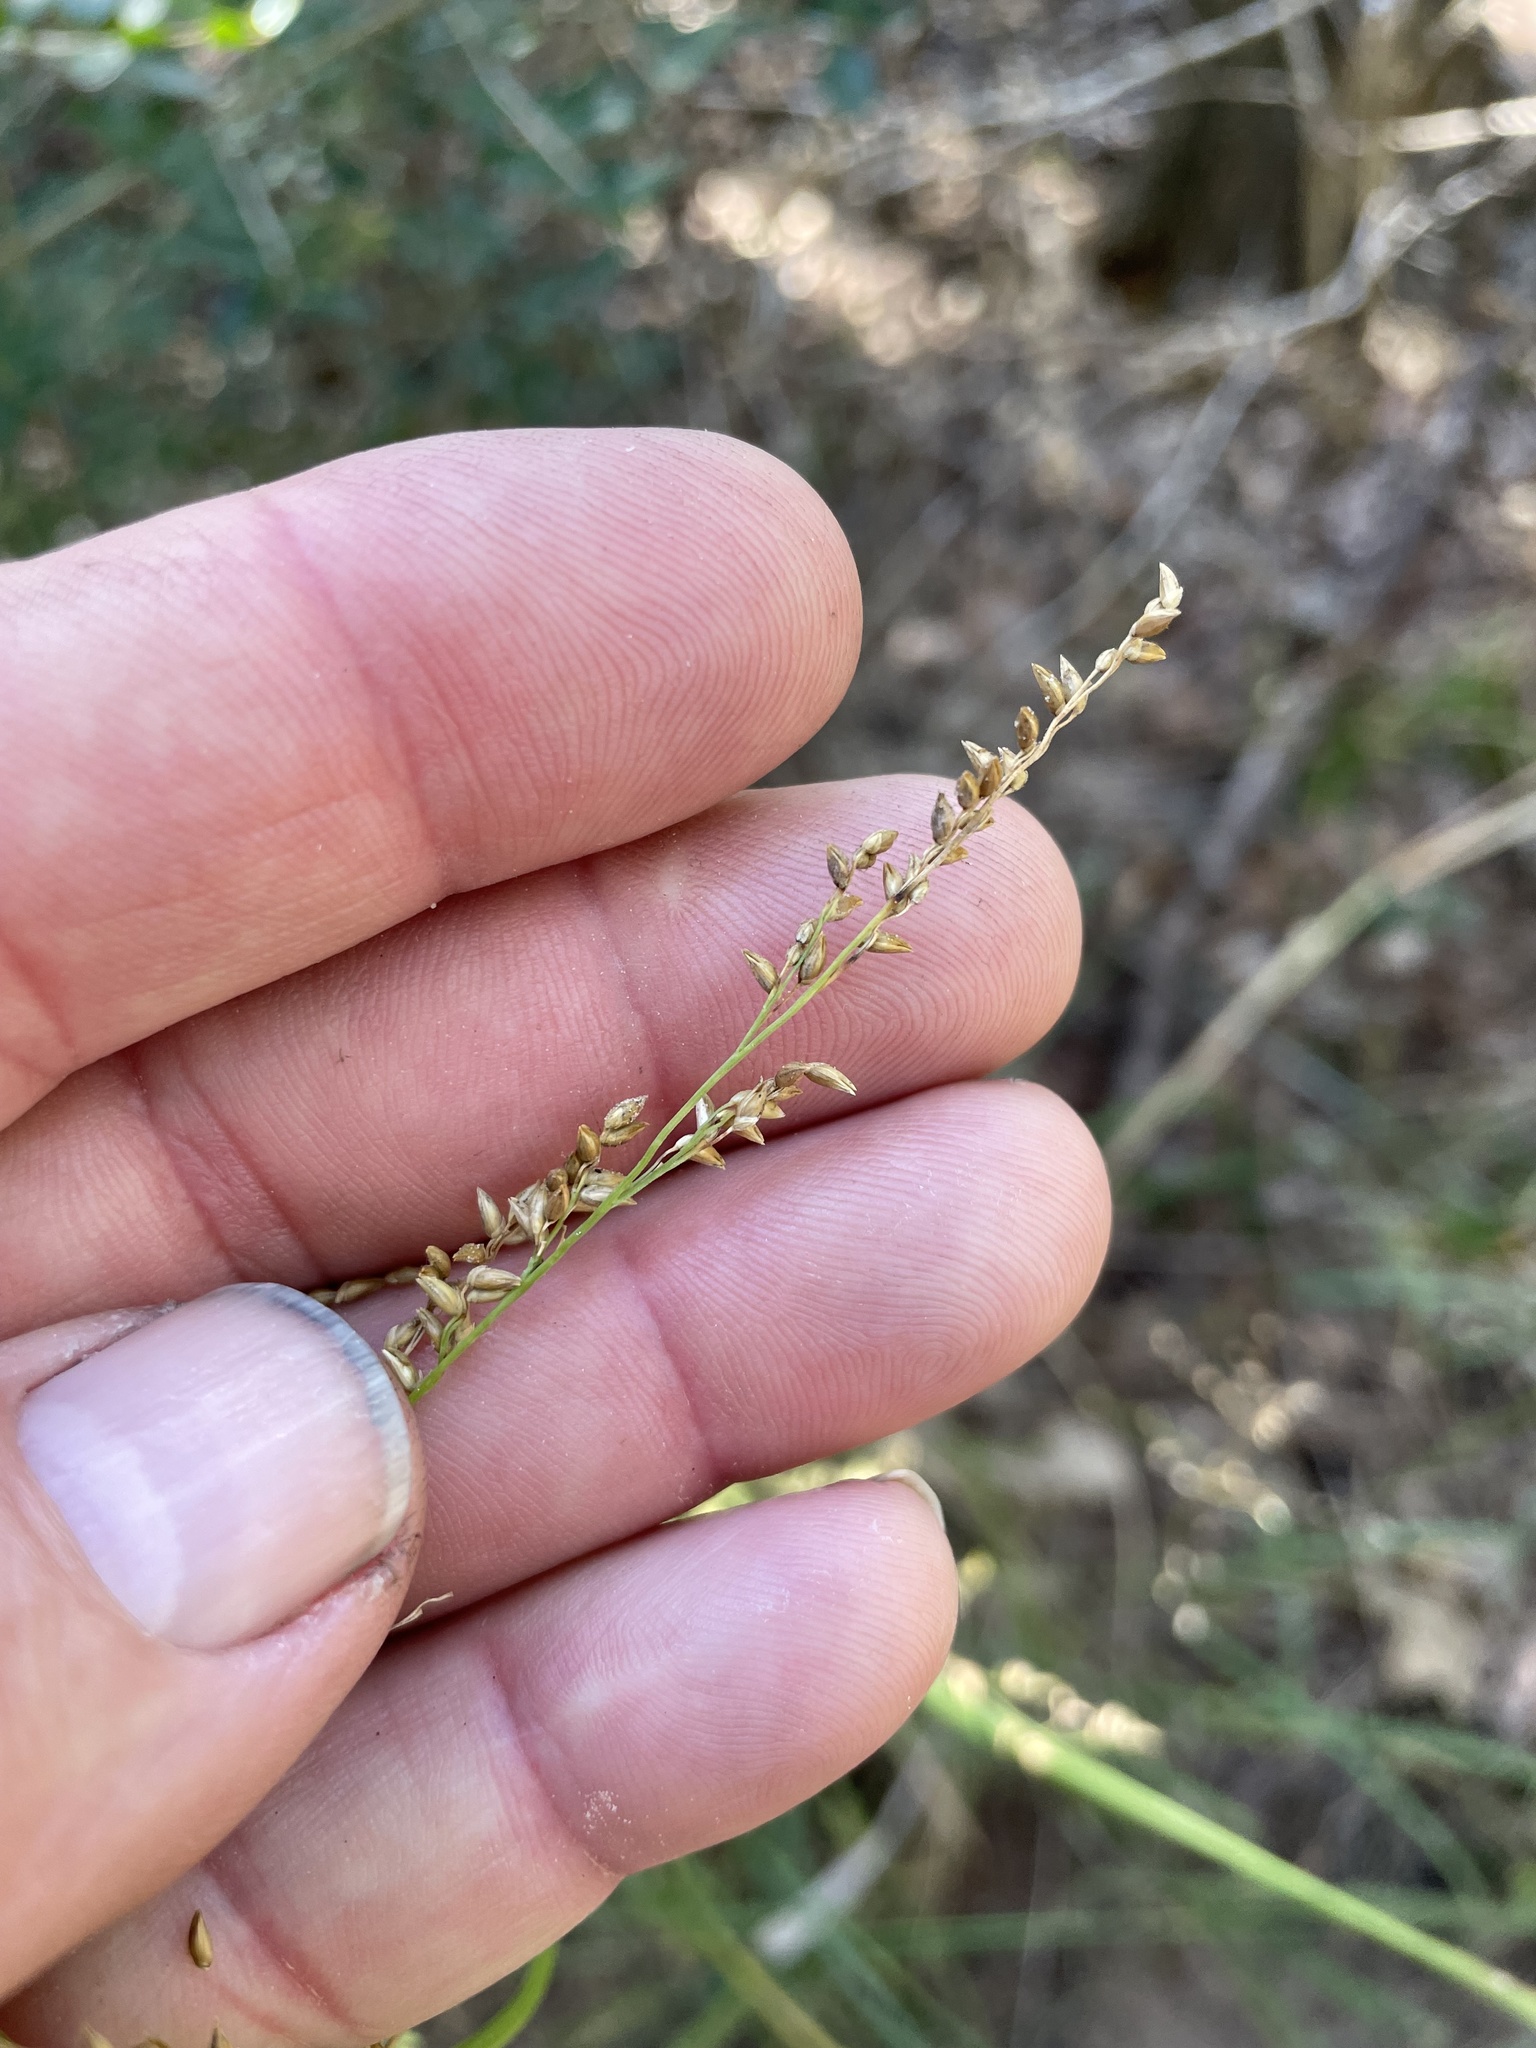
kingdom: Plantae
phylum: Tracheophyta
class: Liliopsida
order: Poales
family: Poaceae
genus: Coleataenia
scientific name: Coleataenia anceps
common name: Beaked panic grass
